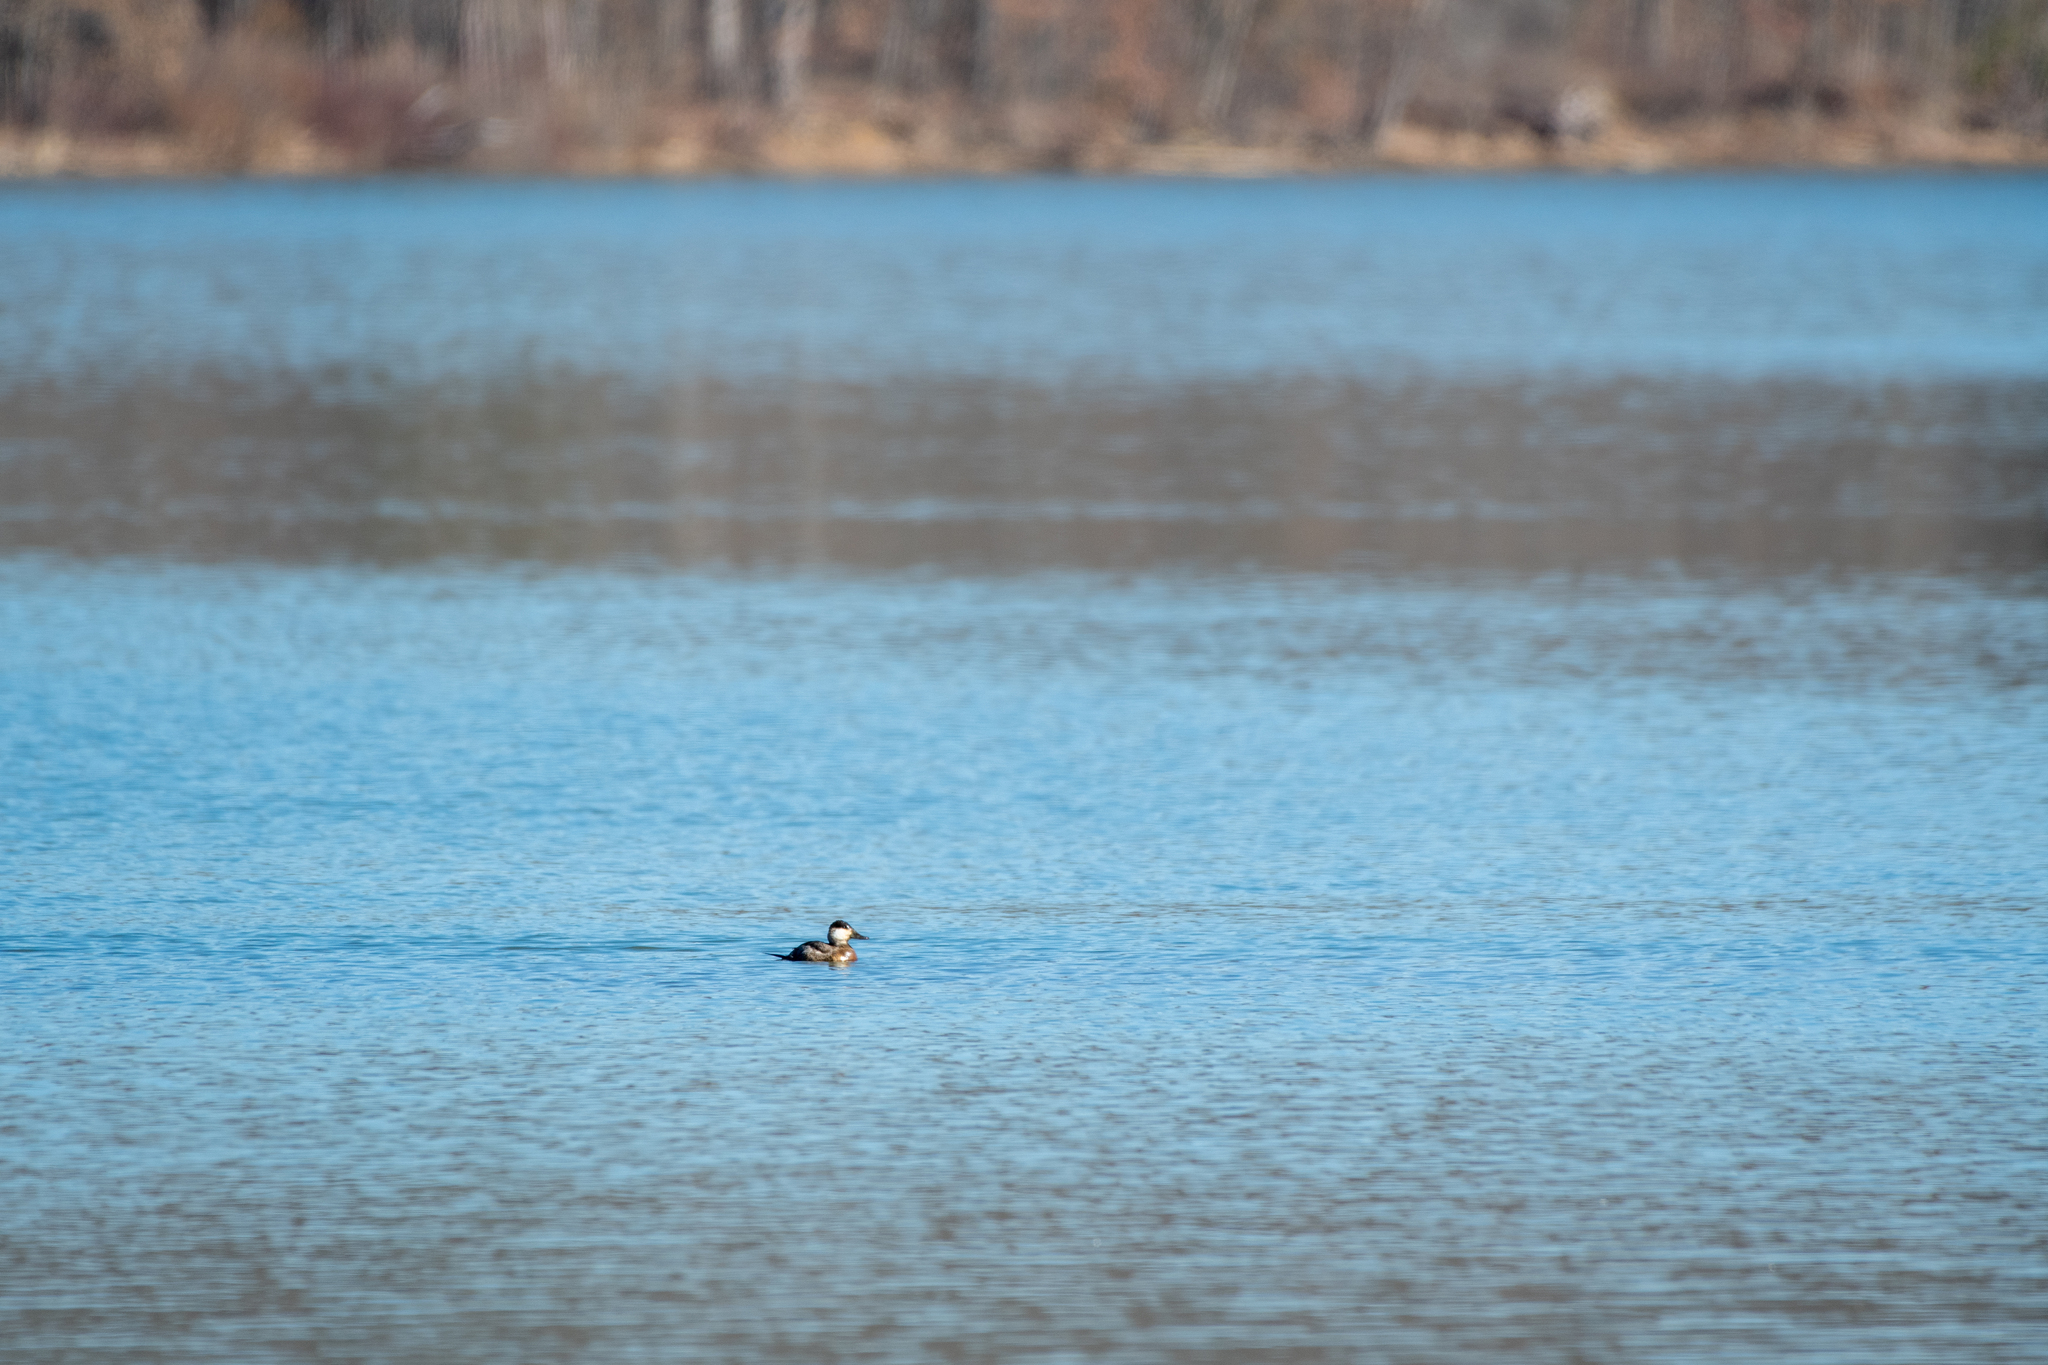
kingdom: Animalia
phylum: Chordata
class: Aves
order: Anseriformes
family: Anatidae
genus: Oxyura
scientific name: Oxyura jamaicensis
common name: Ruddy duck
